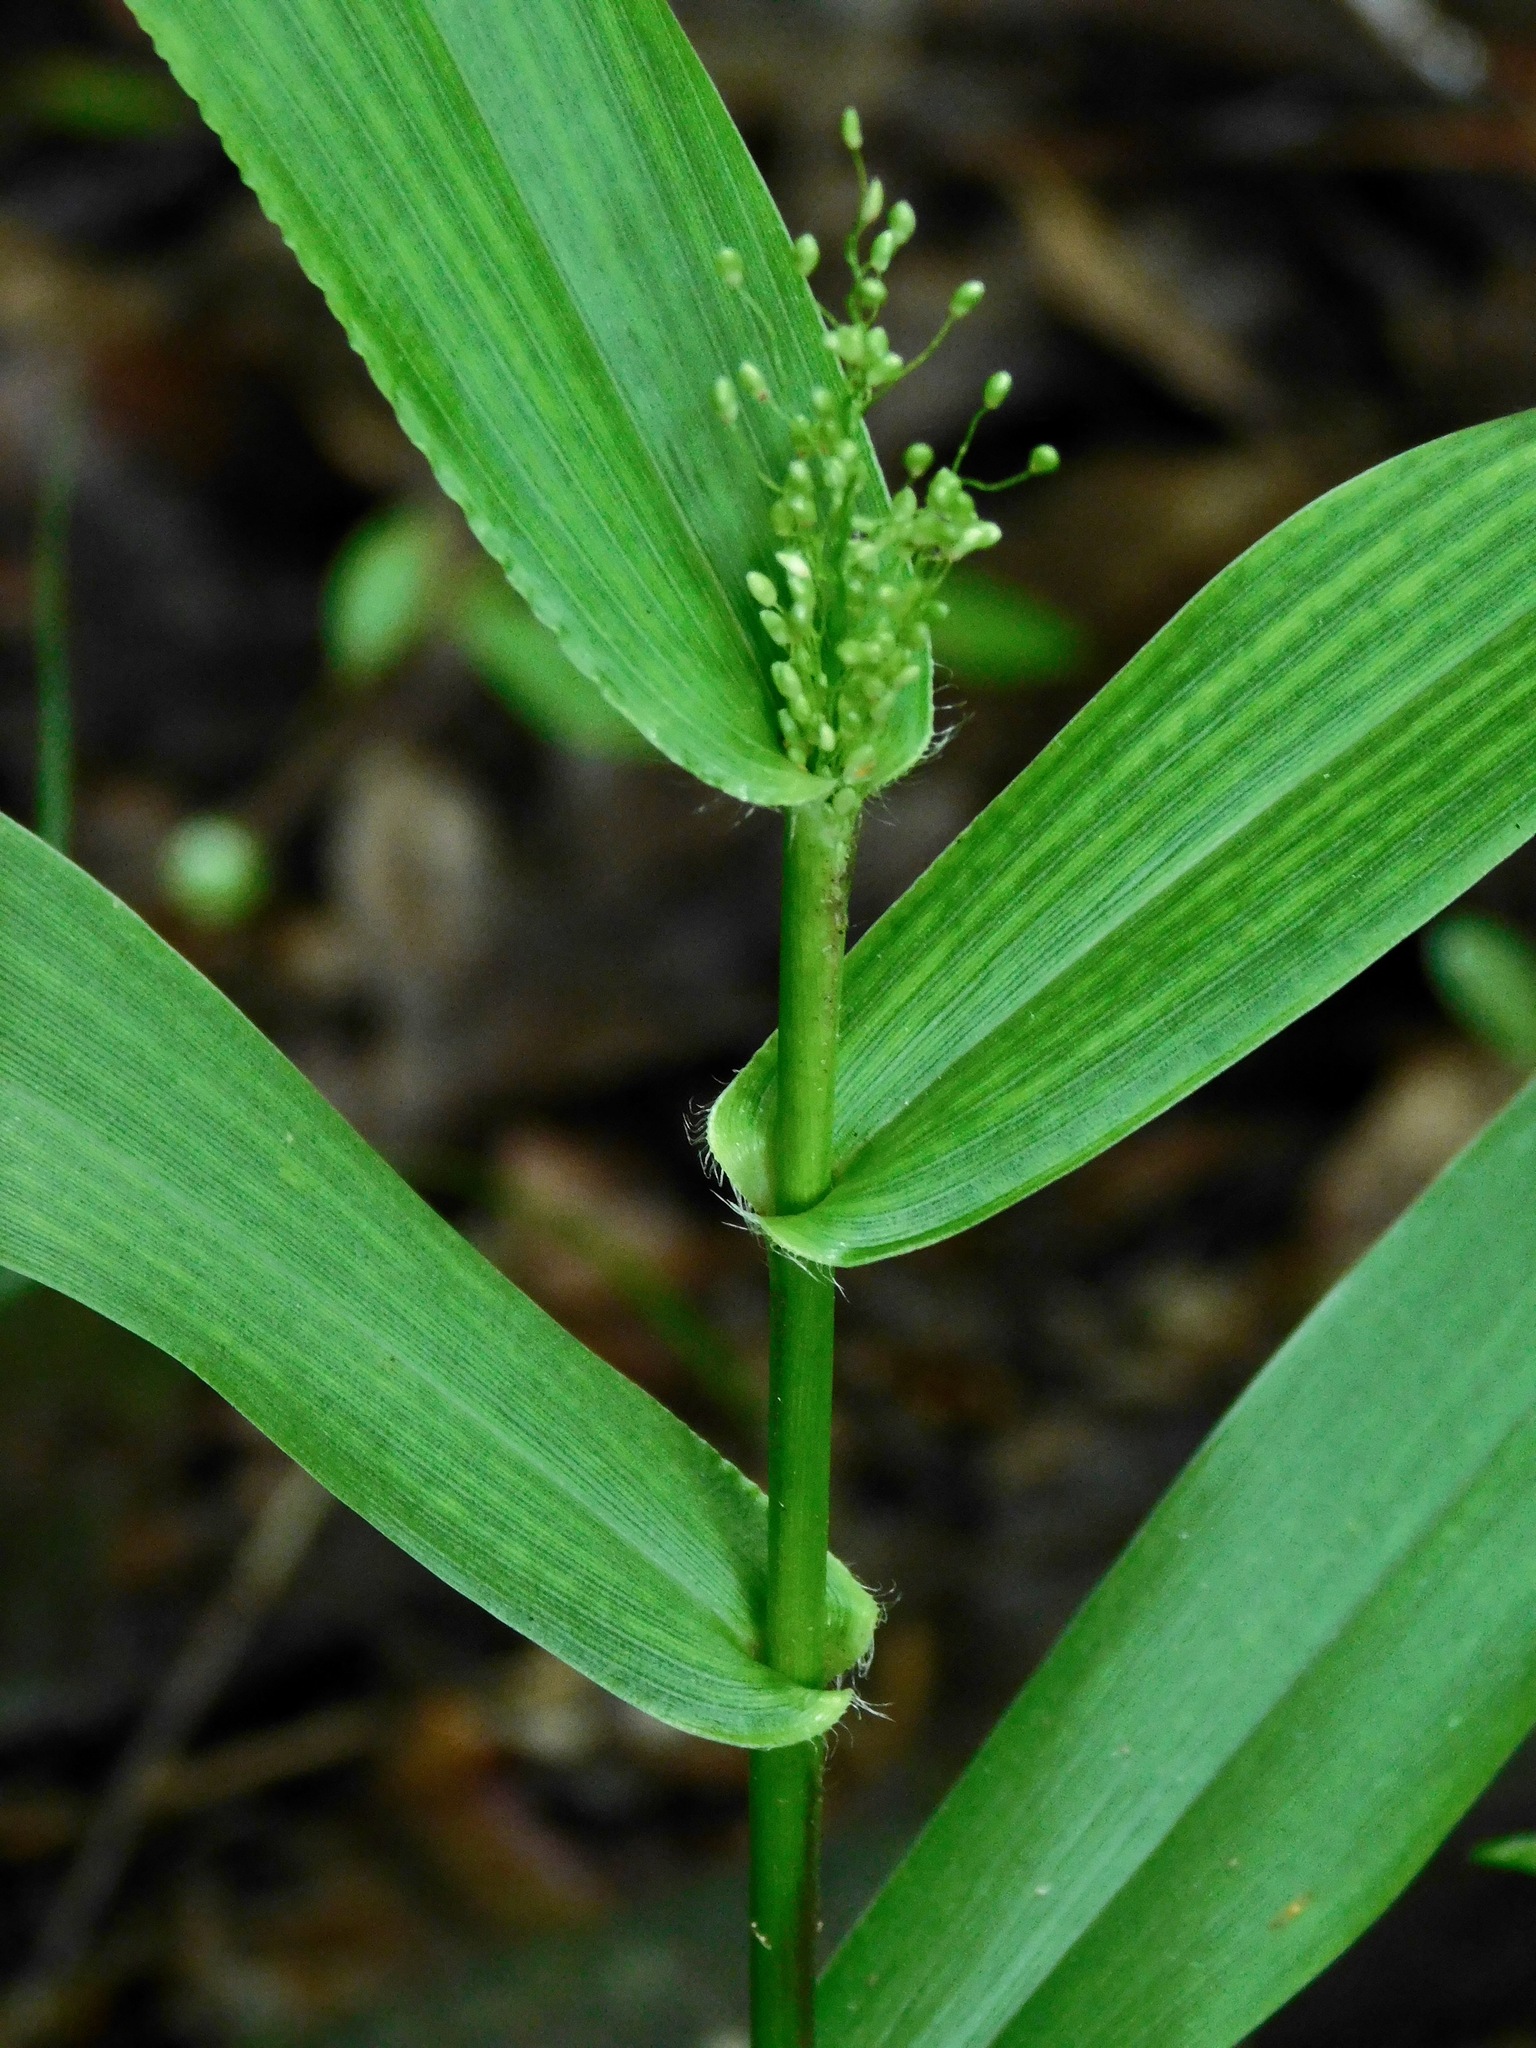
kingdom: Plantae
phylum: Tracheophyta
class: Liliopsida
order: Poales
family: Poaceae
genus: Dichanthelium
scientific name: Dichanthelium polyanthes
